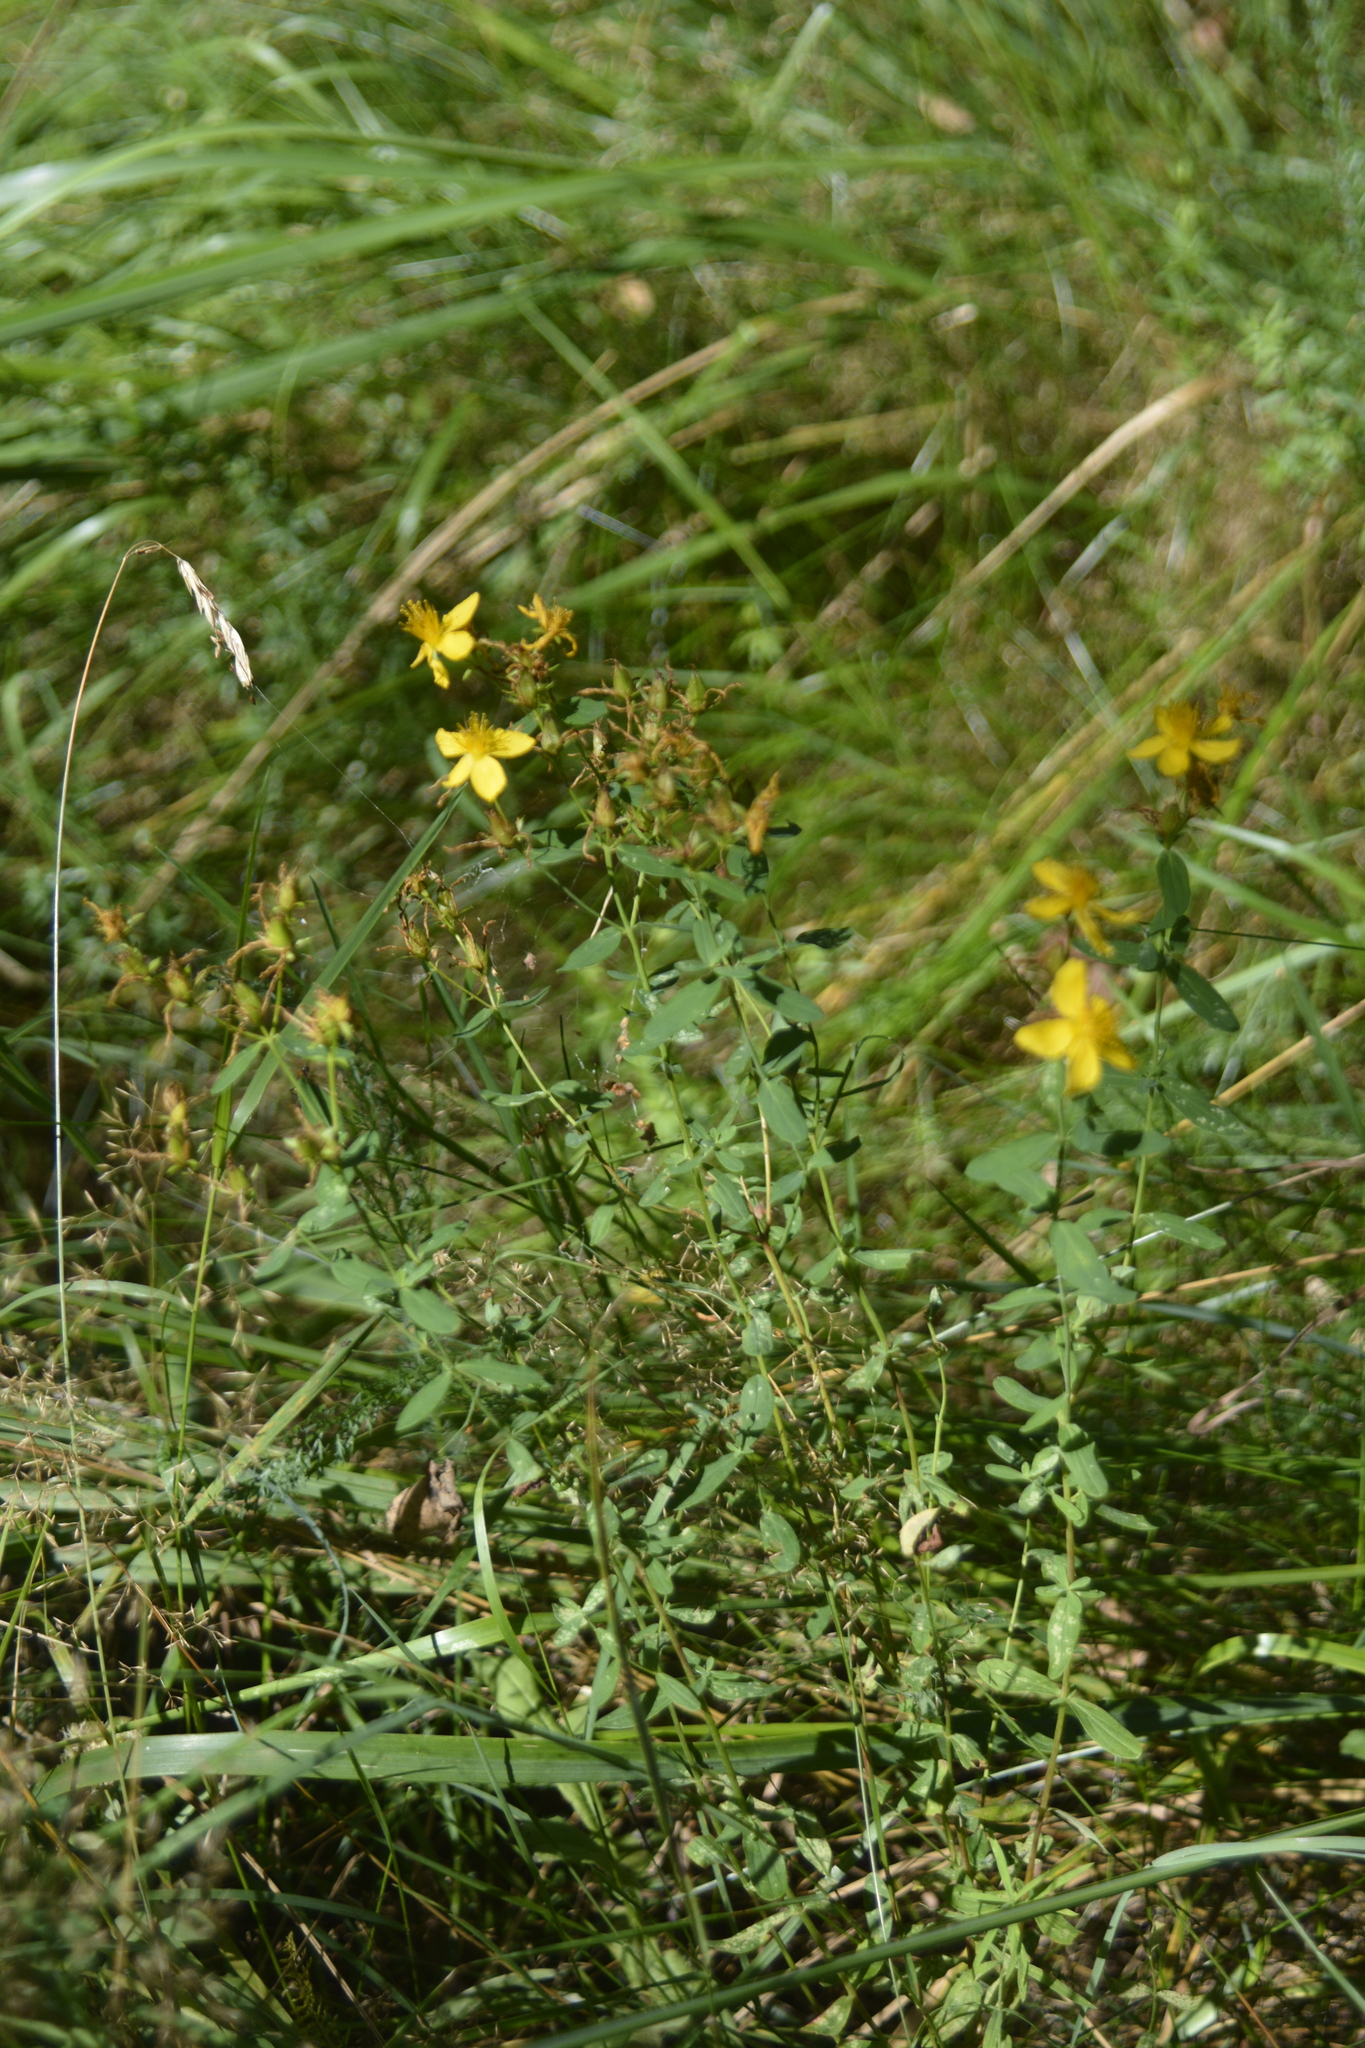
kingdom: Plantae
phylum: Tracheophyta
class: Magnoliopsida
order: Malpighiales
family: Hypericaceae
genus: Hypericum
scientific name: Hypericum perforatum
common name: Common st. johnswort
